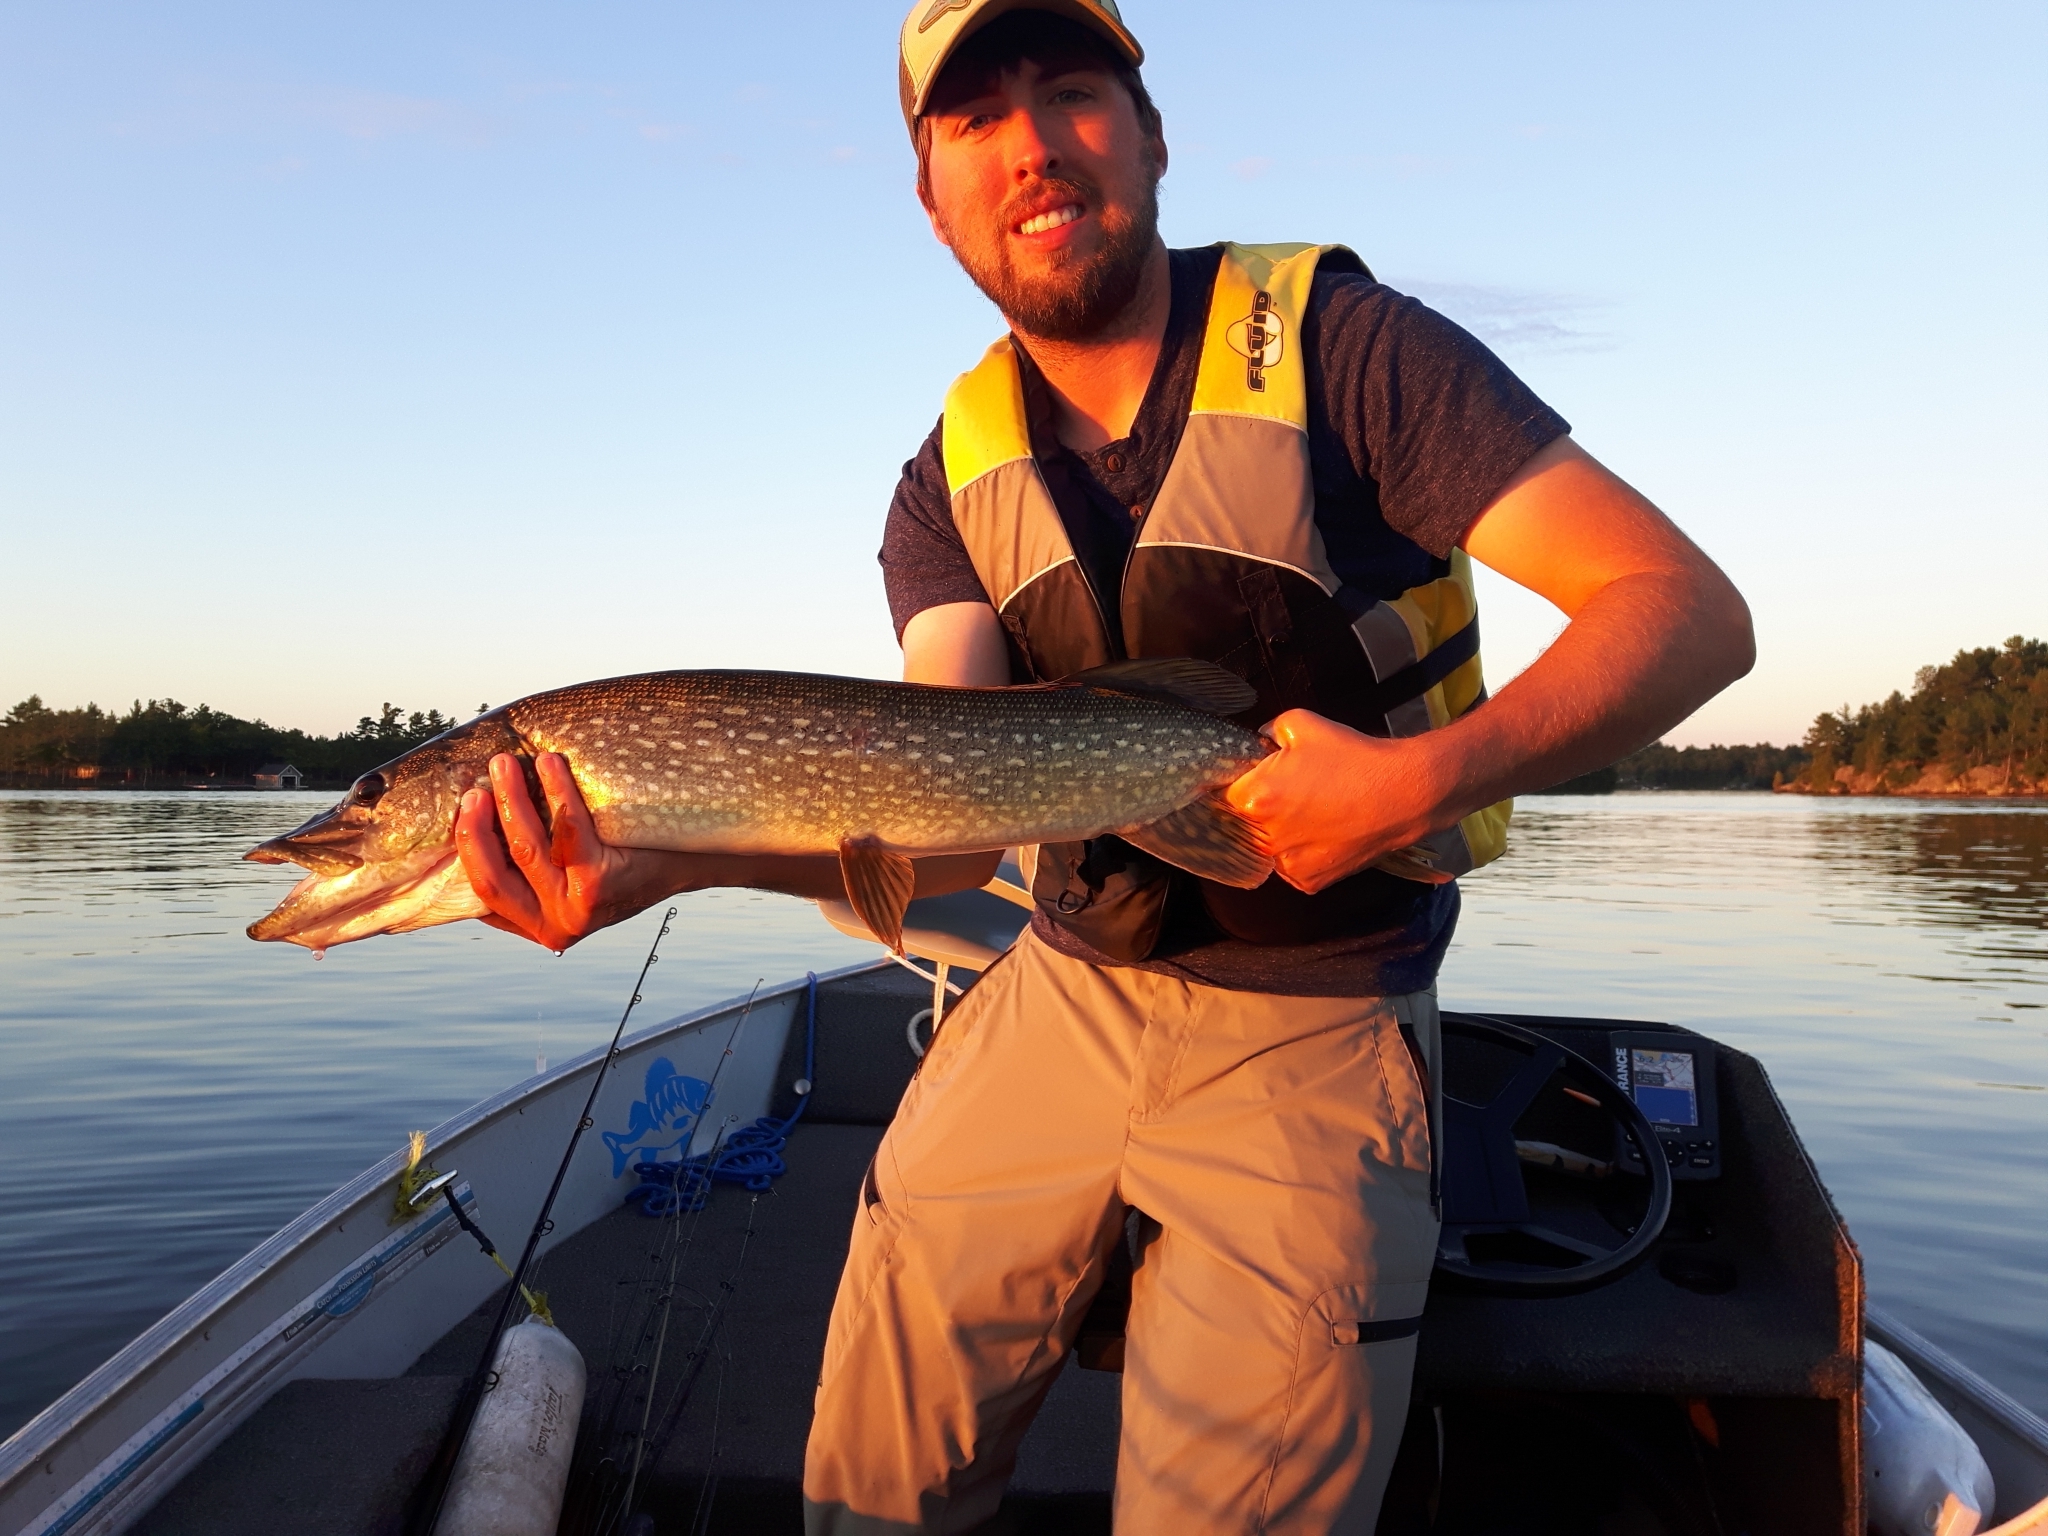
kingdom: Animalia
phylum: Chordata
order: Esociformes
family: Esocidae
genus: Esox
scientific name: Esox lucius
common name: Northern pike
